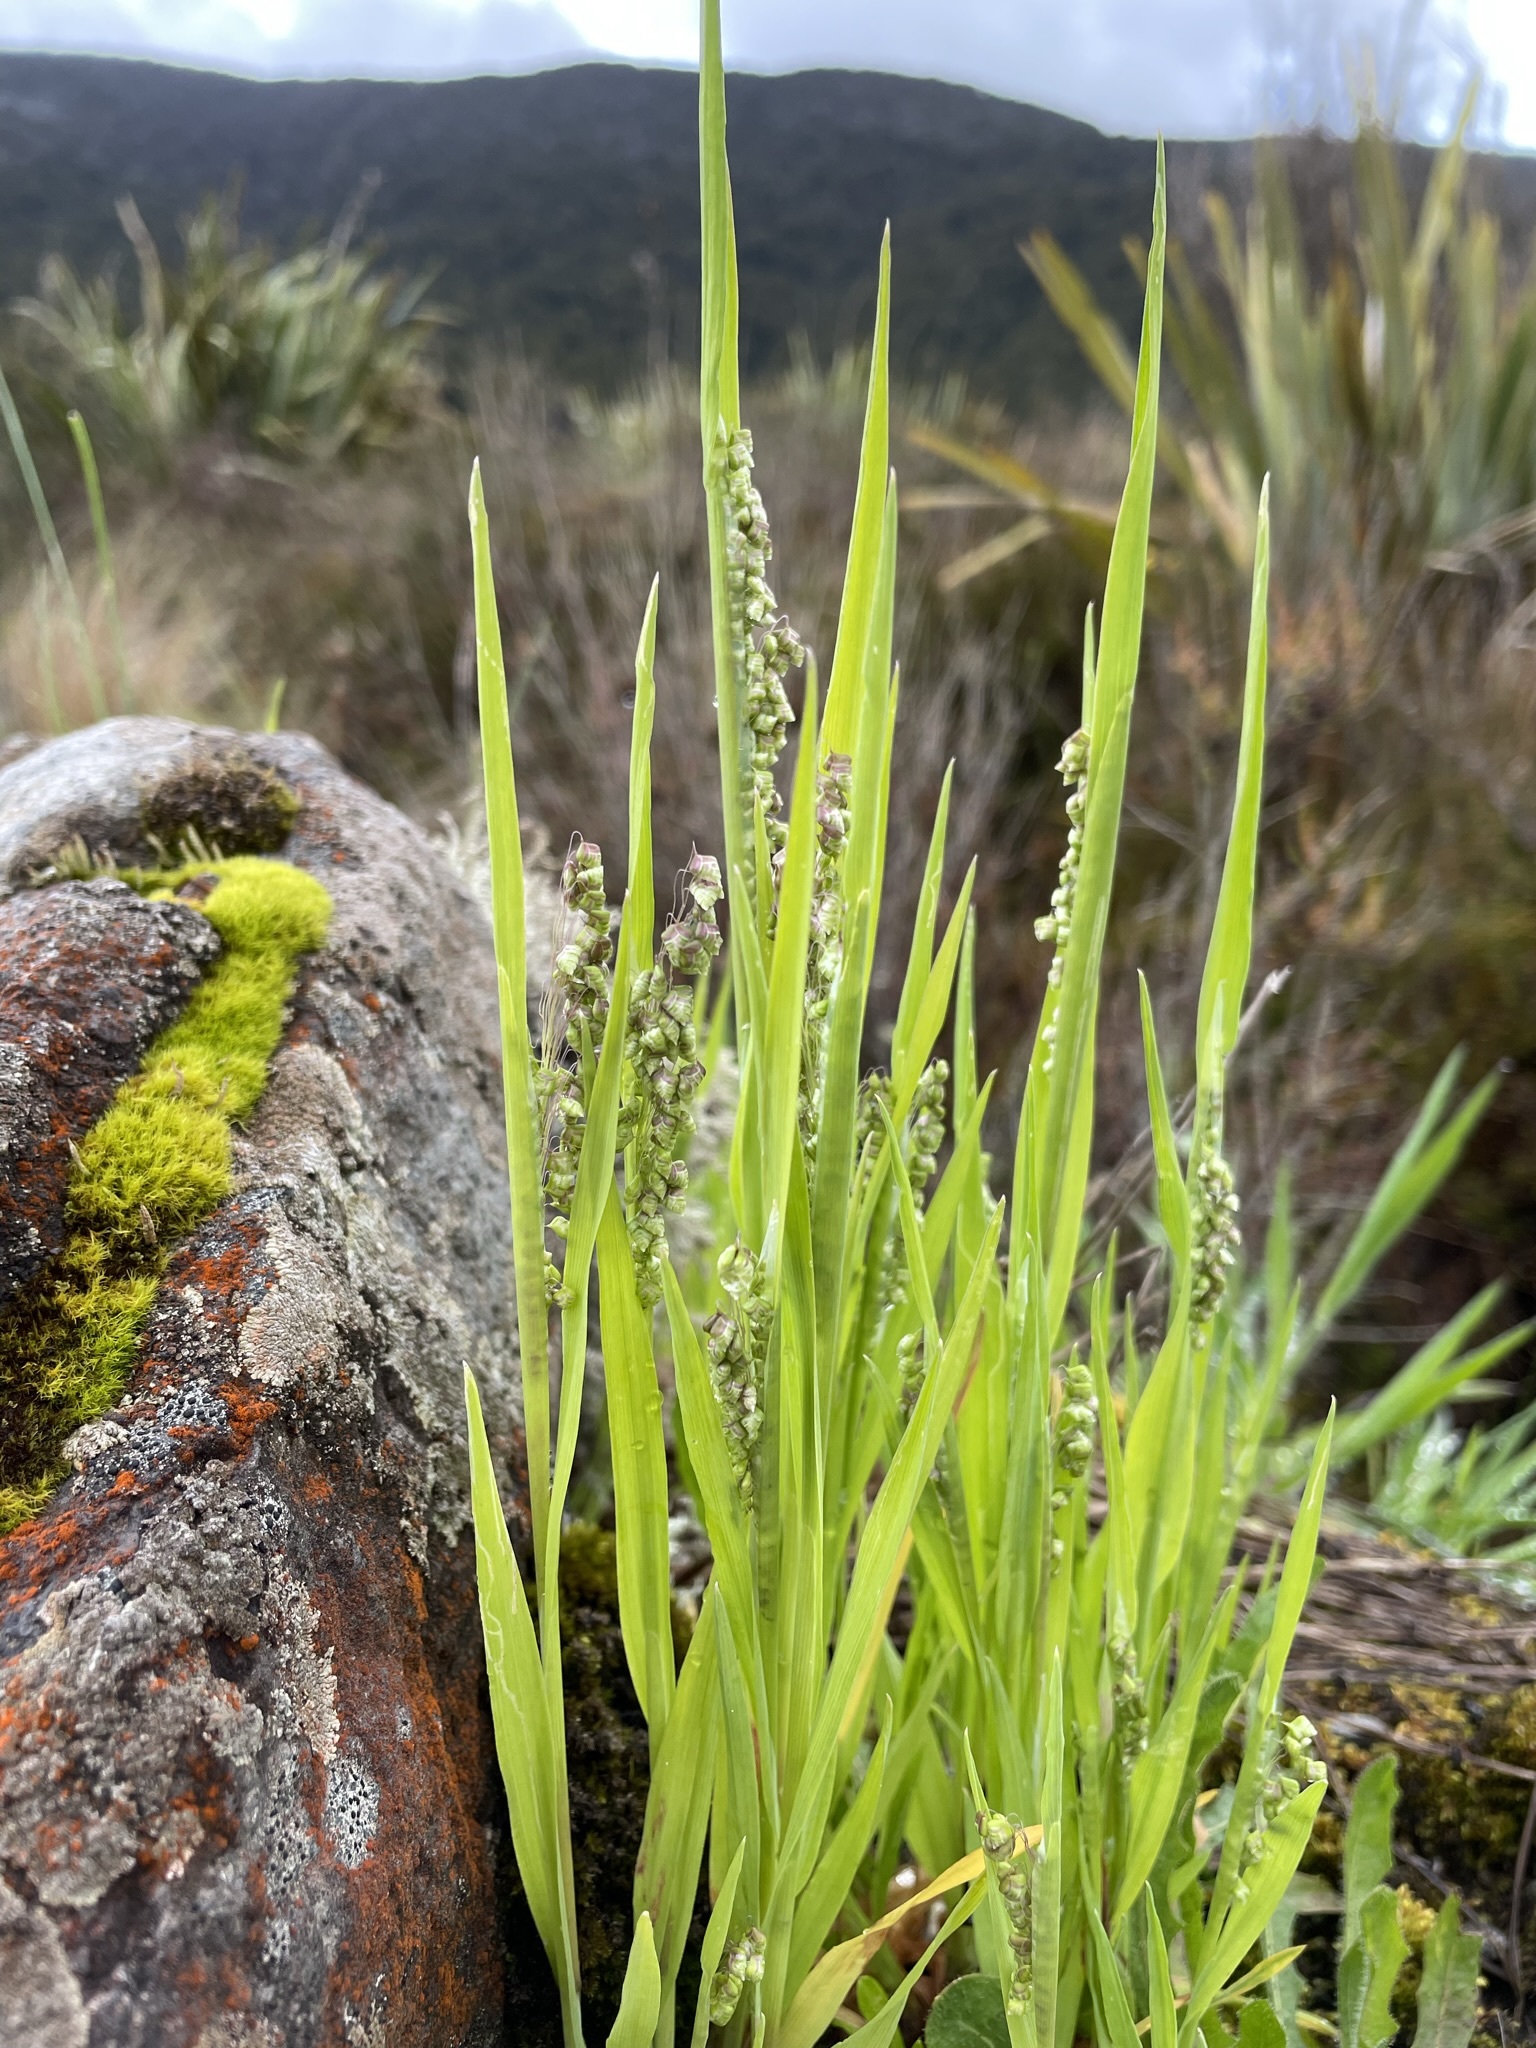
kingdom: Plantae
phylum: Tracheophyta
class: Liliopsida
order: Poales
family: Poaceae
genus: Briza
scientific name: Briza minor
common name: Lesser quaking-grass
